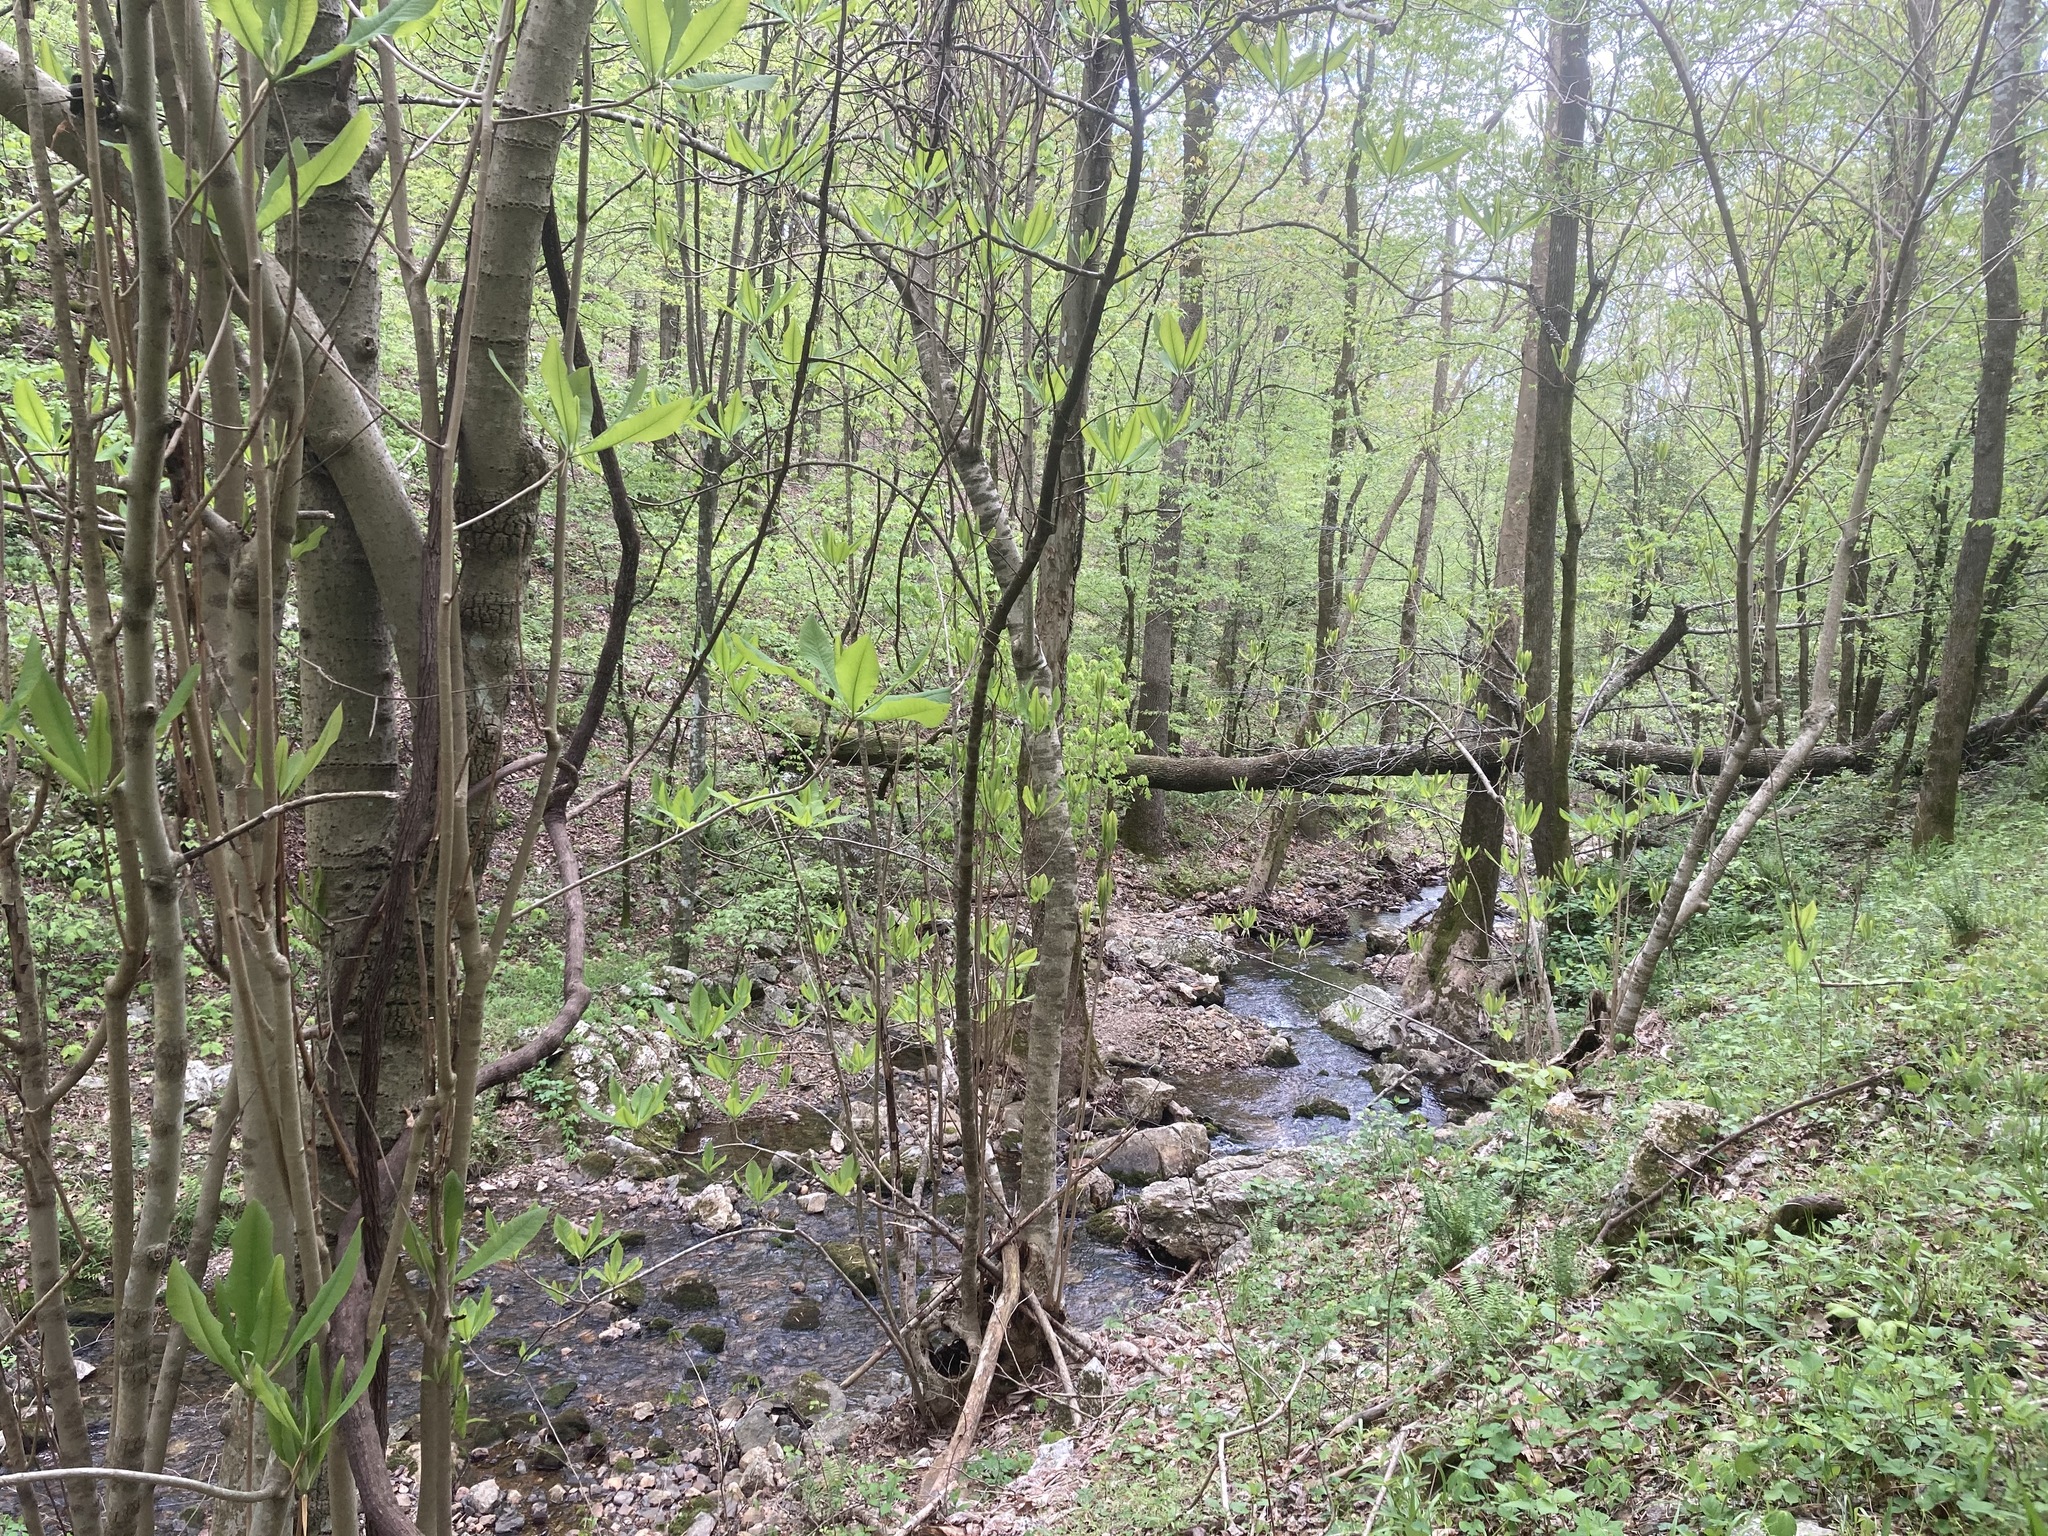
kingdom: Plantae
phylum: Tracheophyta
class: Magnoliopsida
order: Magnoliales
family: Magnoliaceae
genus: Magnolia
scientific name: Magnolia tripetala
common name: Umbrella magnolia
